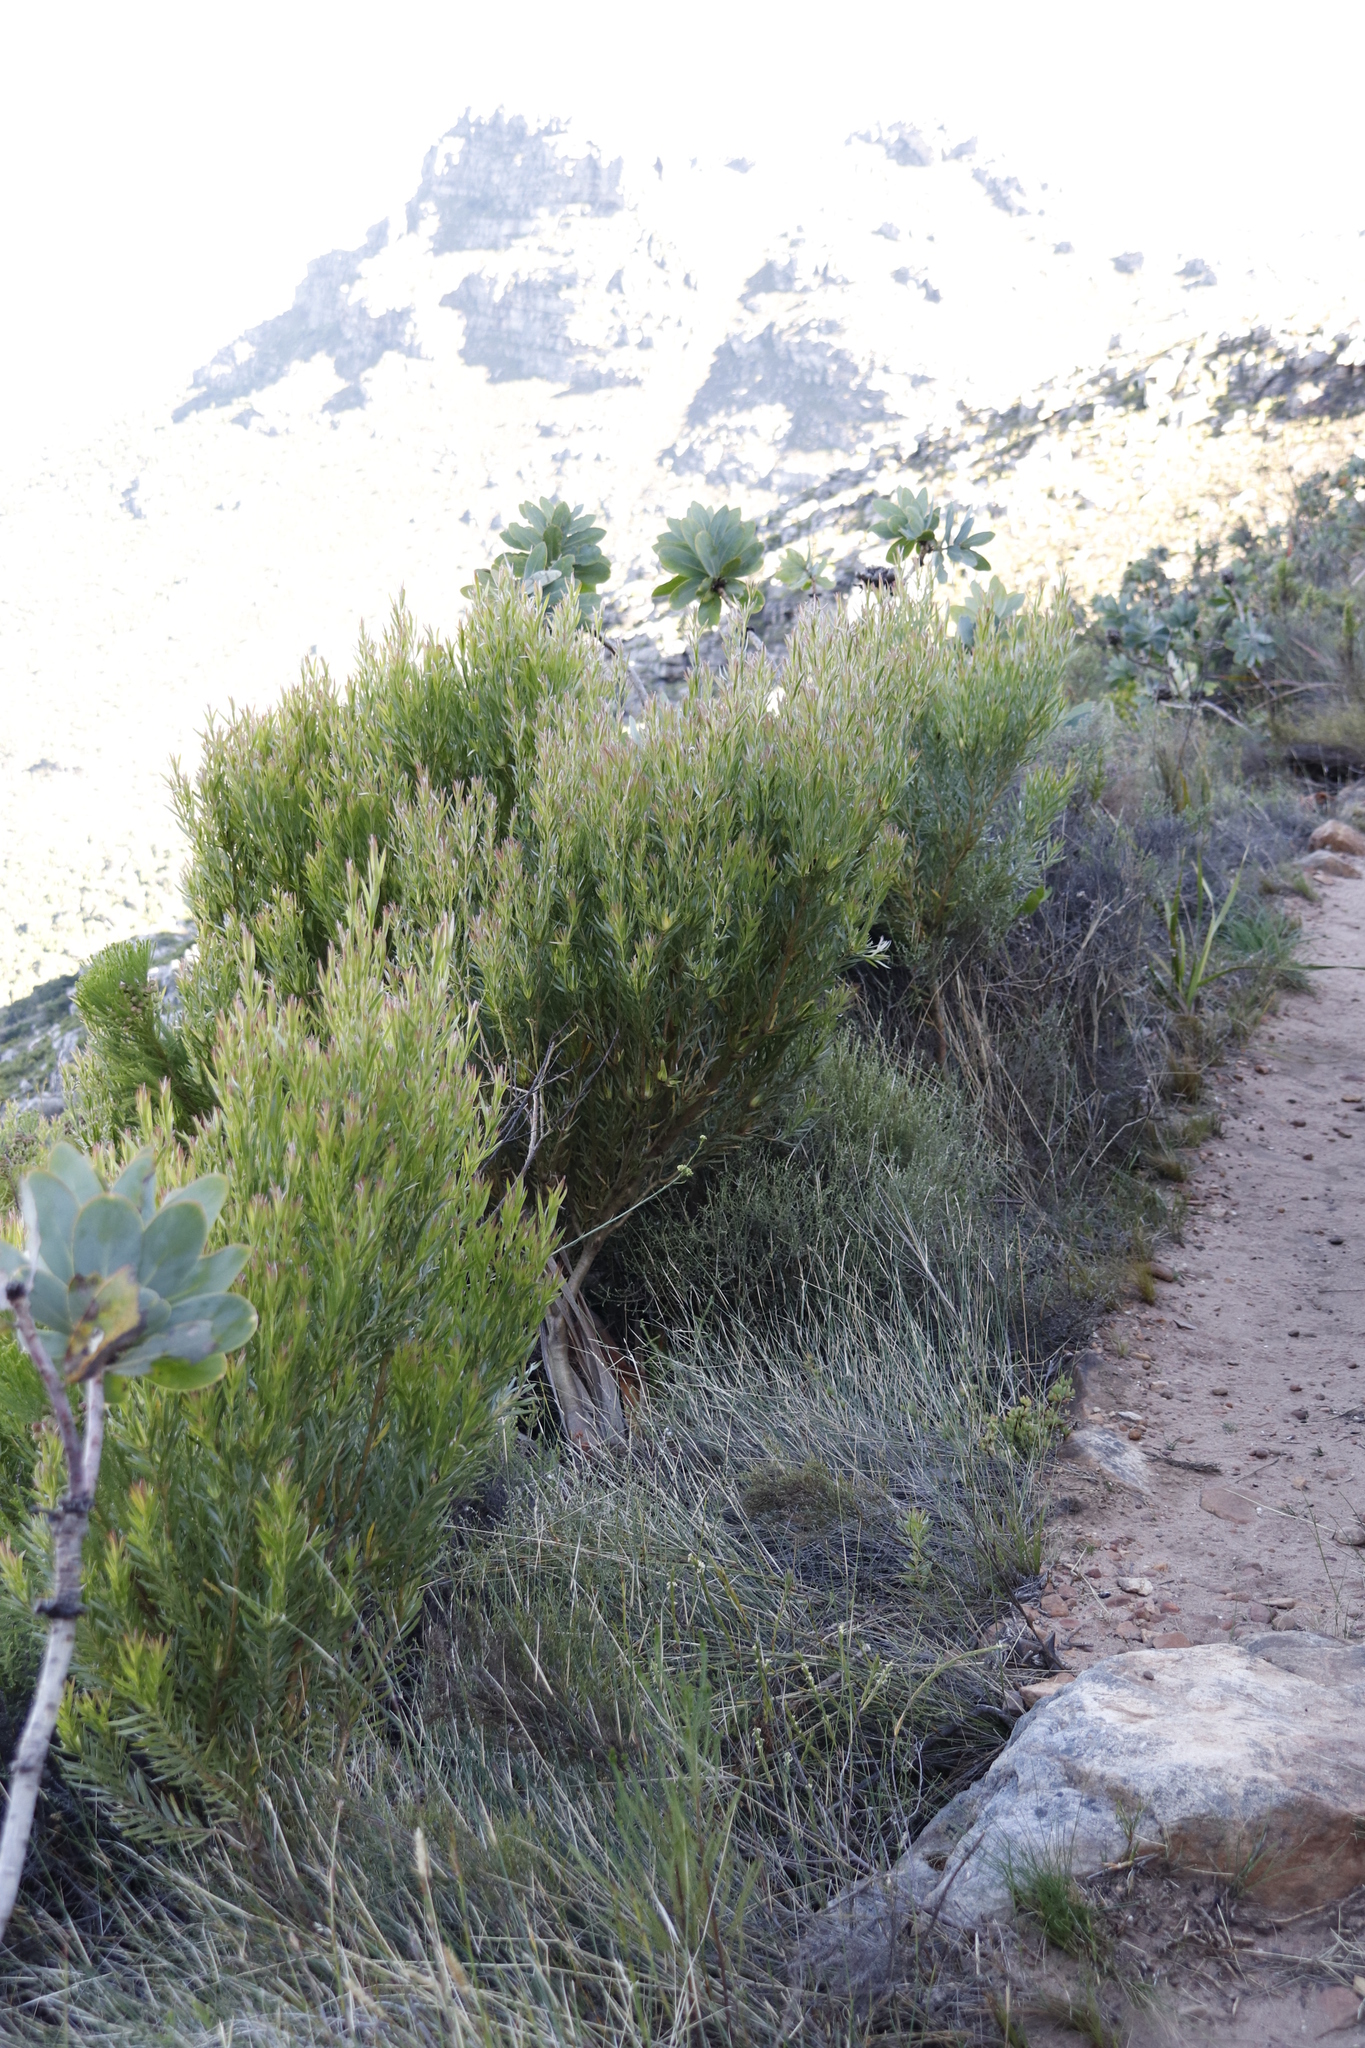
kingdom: Plantae
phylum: Tracheophyta
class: Magnoliopsida
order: Proteales
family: Proteaceae
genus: Leucadendron
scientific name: Leucadendron xanthoconus
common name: Sickle-leaf conebush
